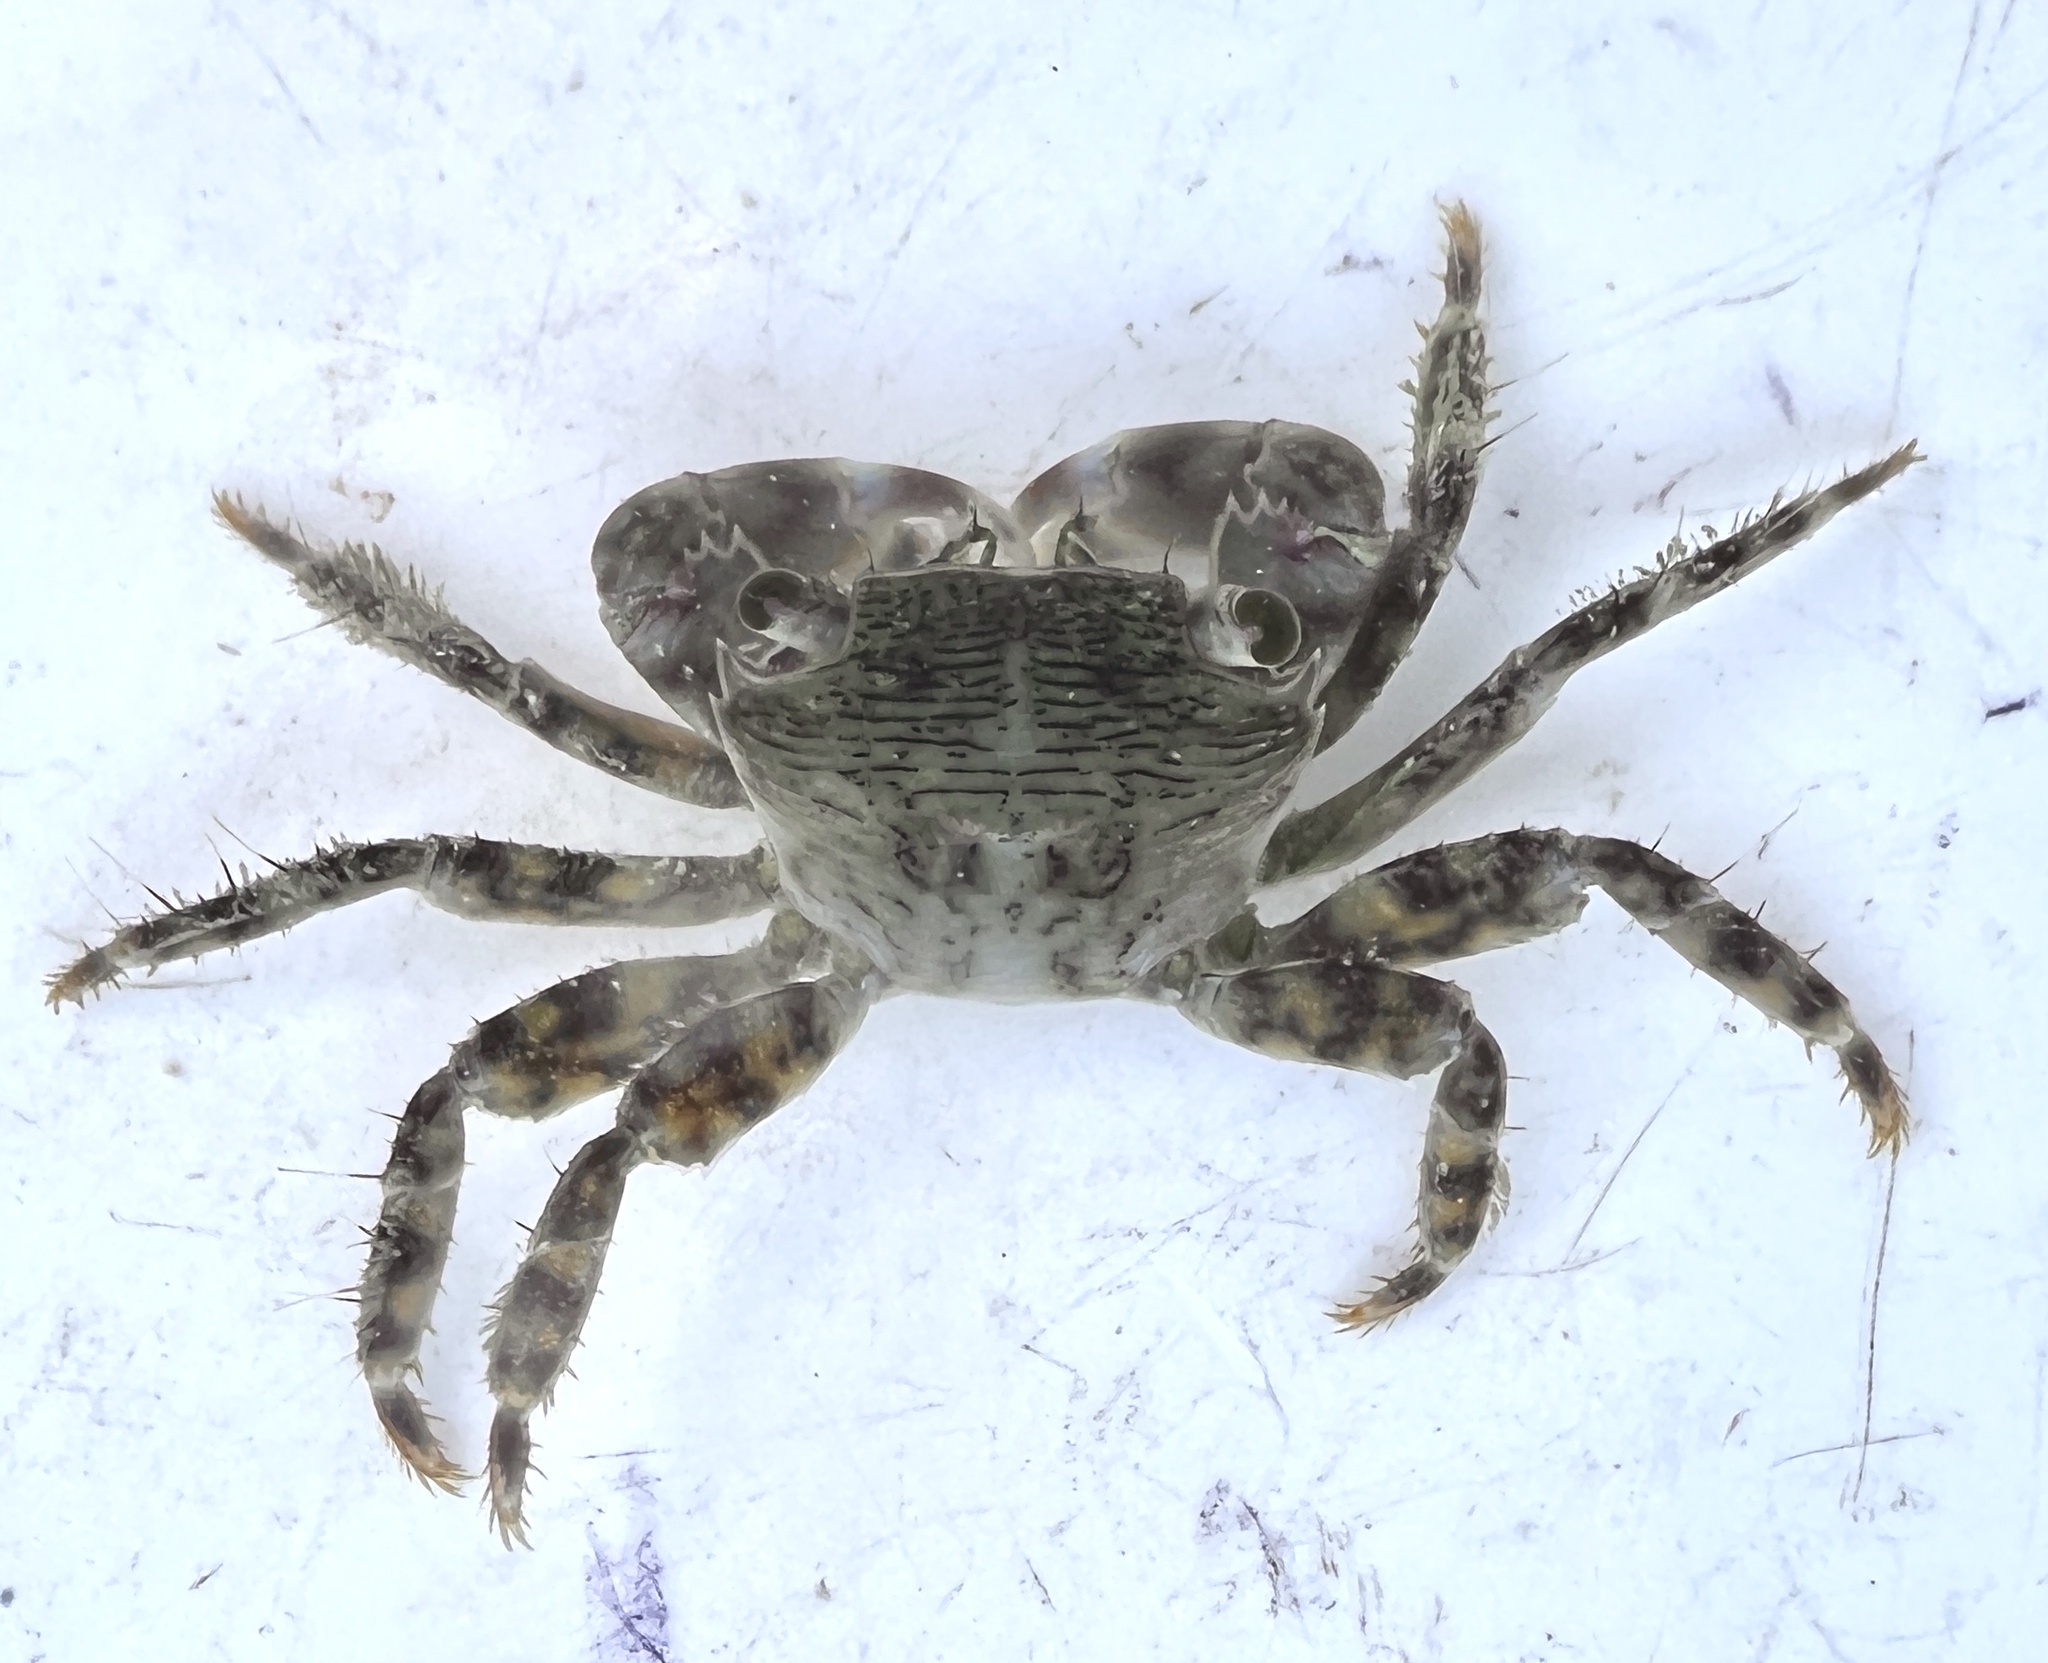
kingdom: Animalia
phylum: Arthropoda
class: Malacostraca
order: Decapoda
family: Grapsidae
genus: Pachygrapsus
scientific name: Pachygrapsus transversus
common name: Mottled shore crab
